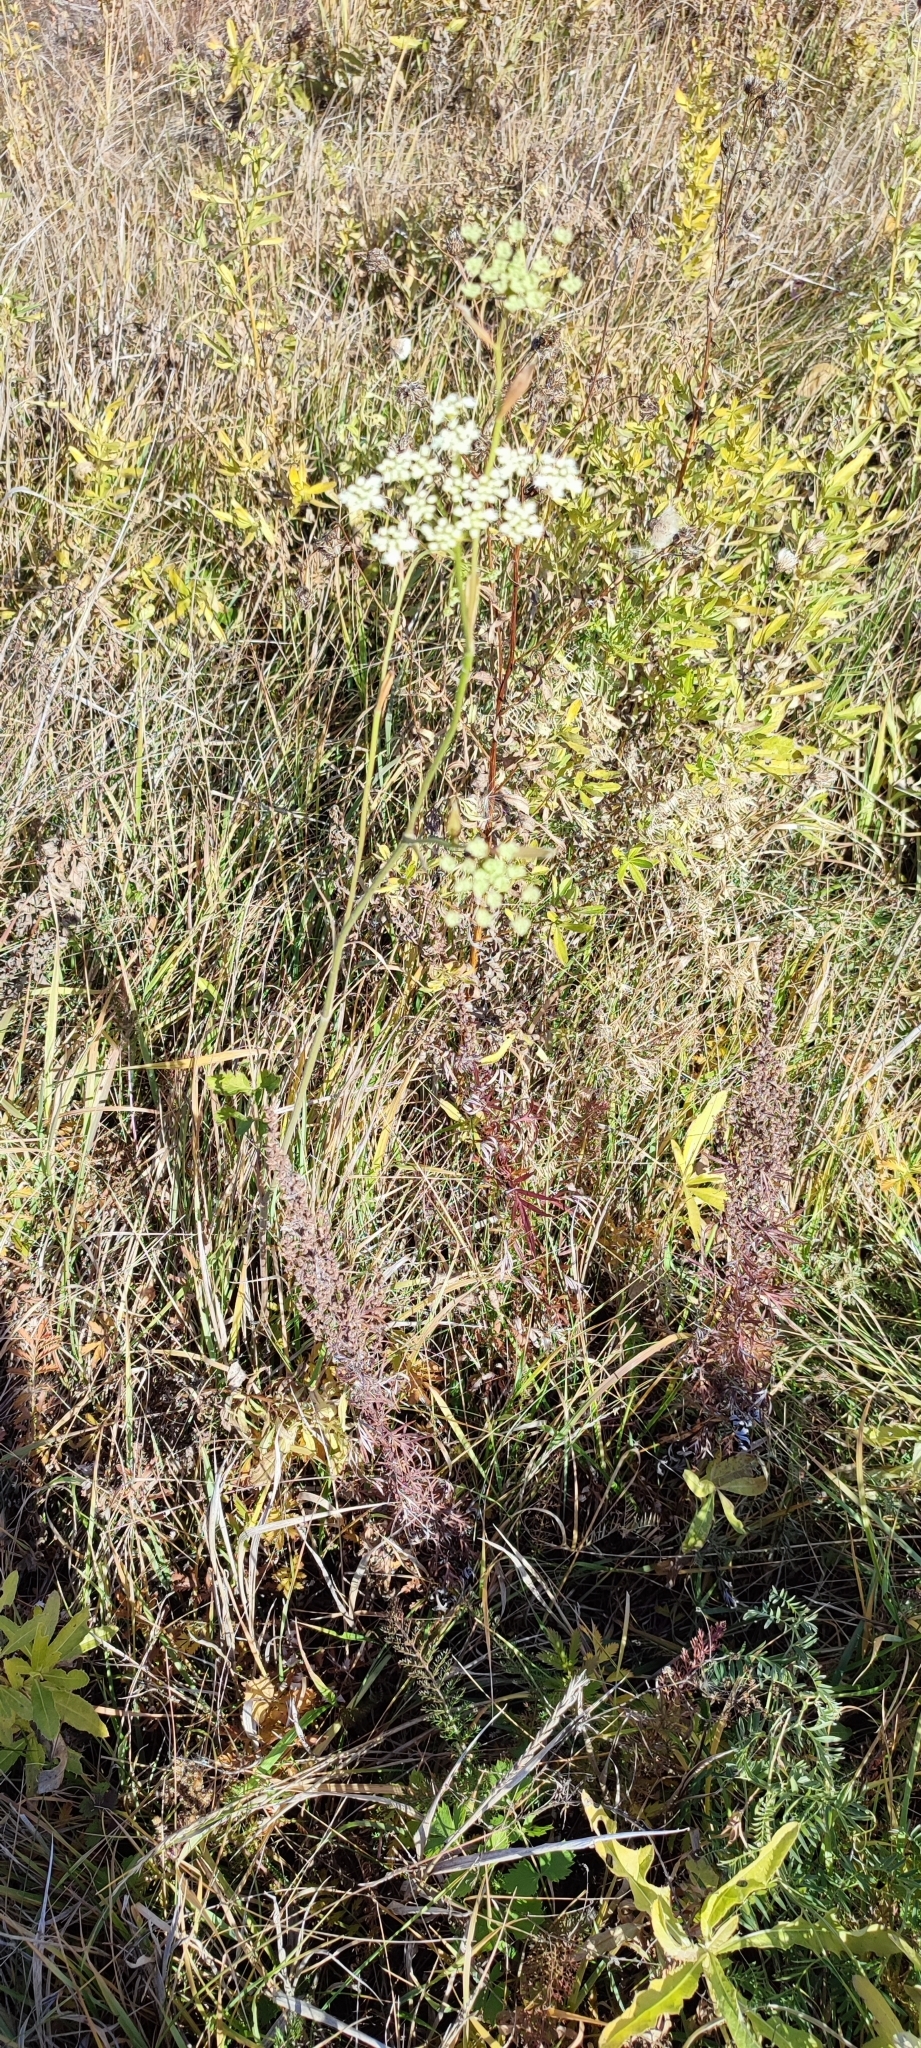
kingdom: Plantae
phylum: Tracheophyta
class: Magnoliopsida
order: Apiales
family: Apiaceae
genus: Pimpinella
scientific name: Pimpinella saxifraga
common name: Burnet-saxifrage
